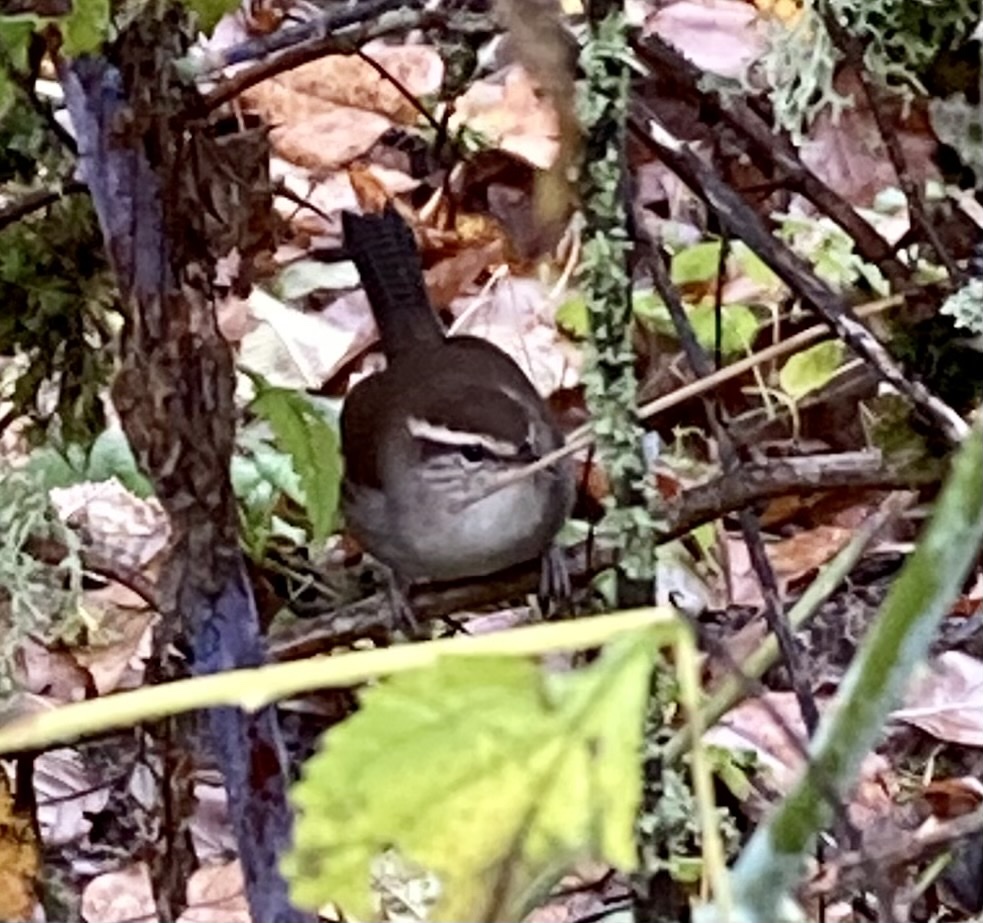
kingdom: Animalia
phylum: Chordata
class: Aves
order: Passeriformes
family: Troglodytidae
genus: Thryomanes
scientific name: Thryomanes bewickii
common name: Bewick's wren
